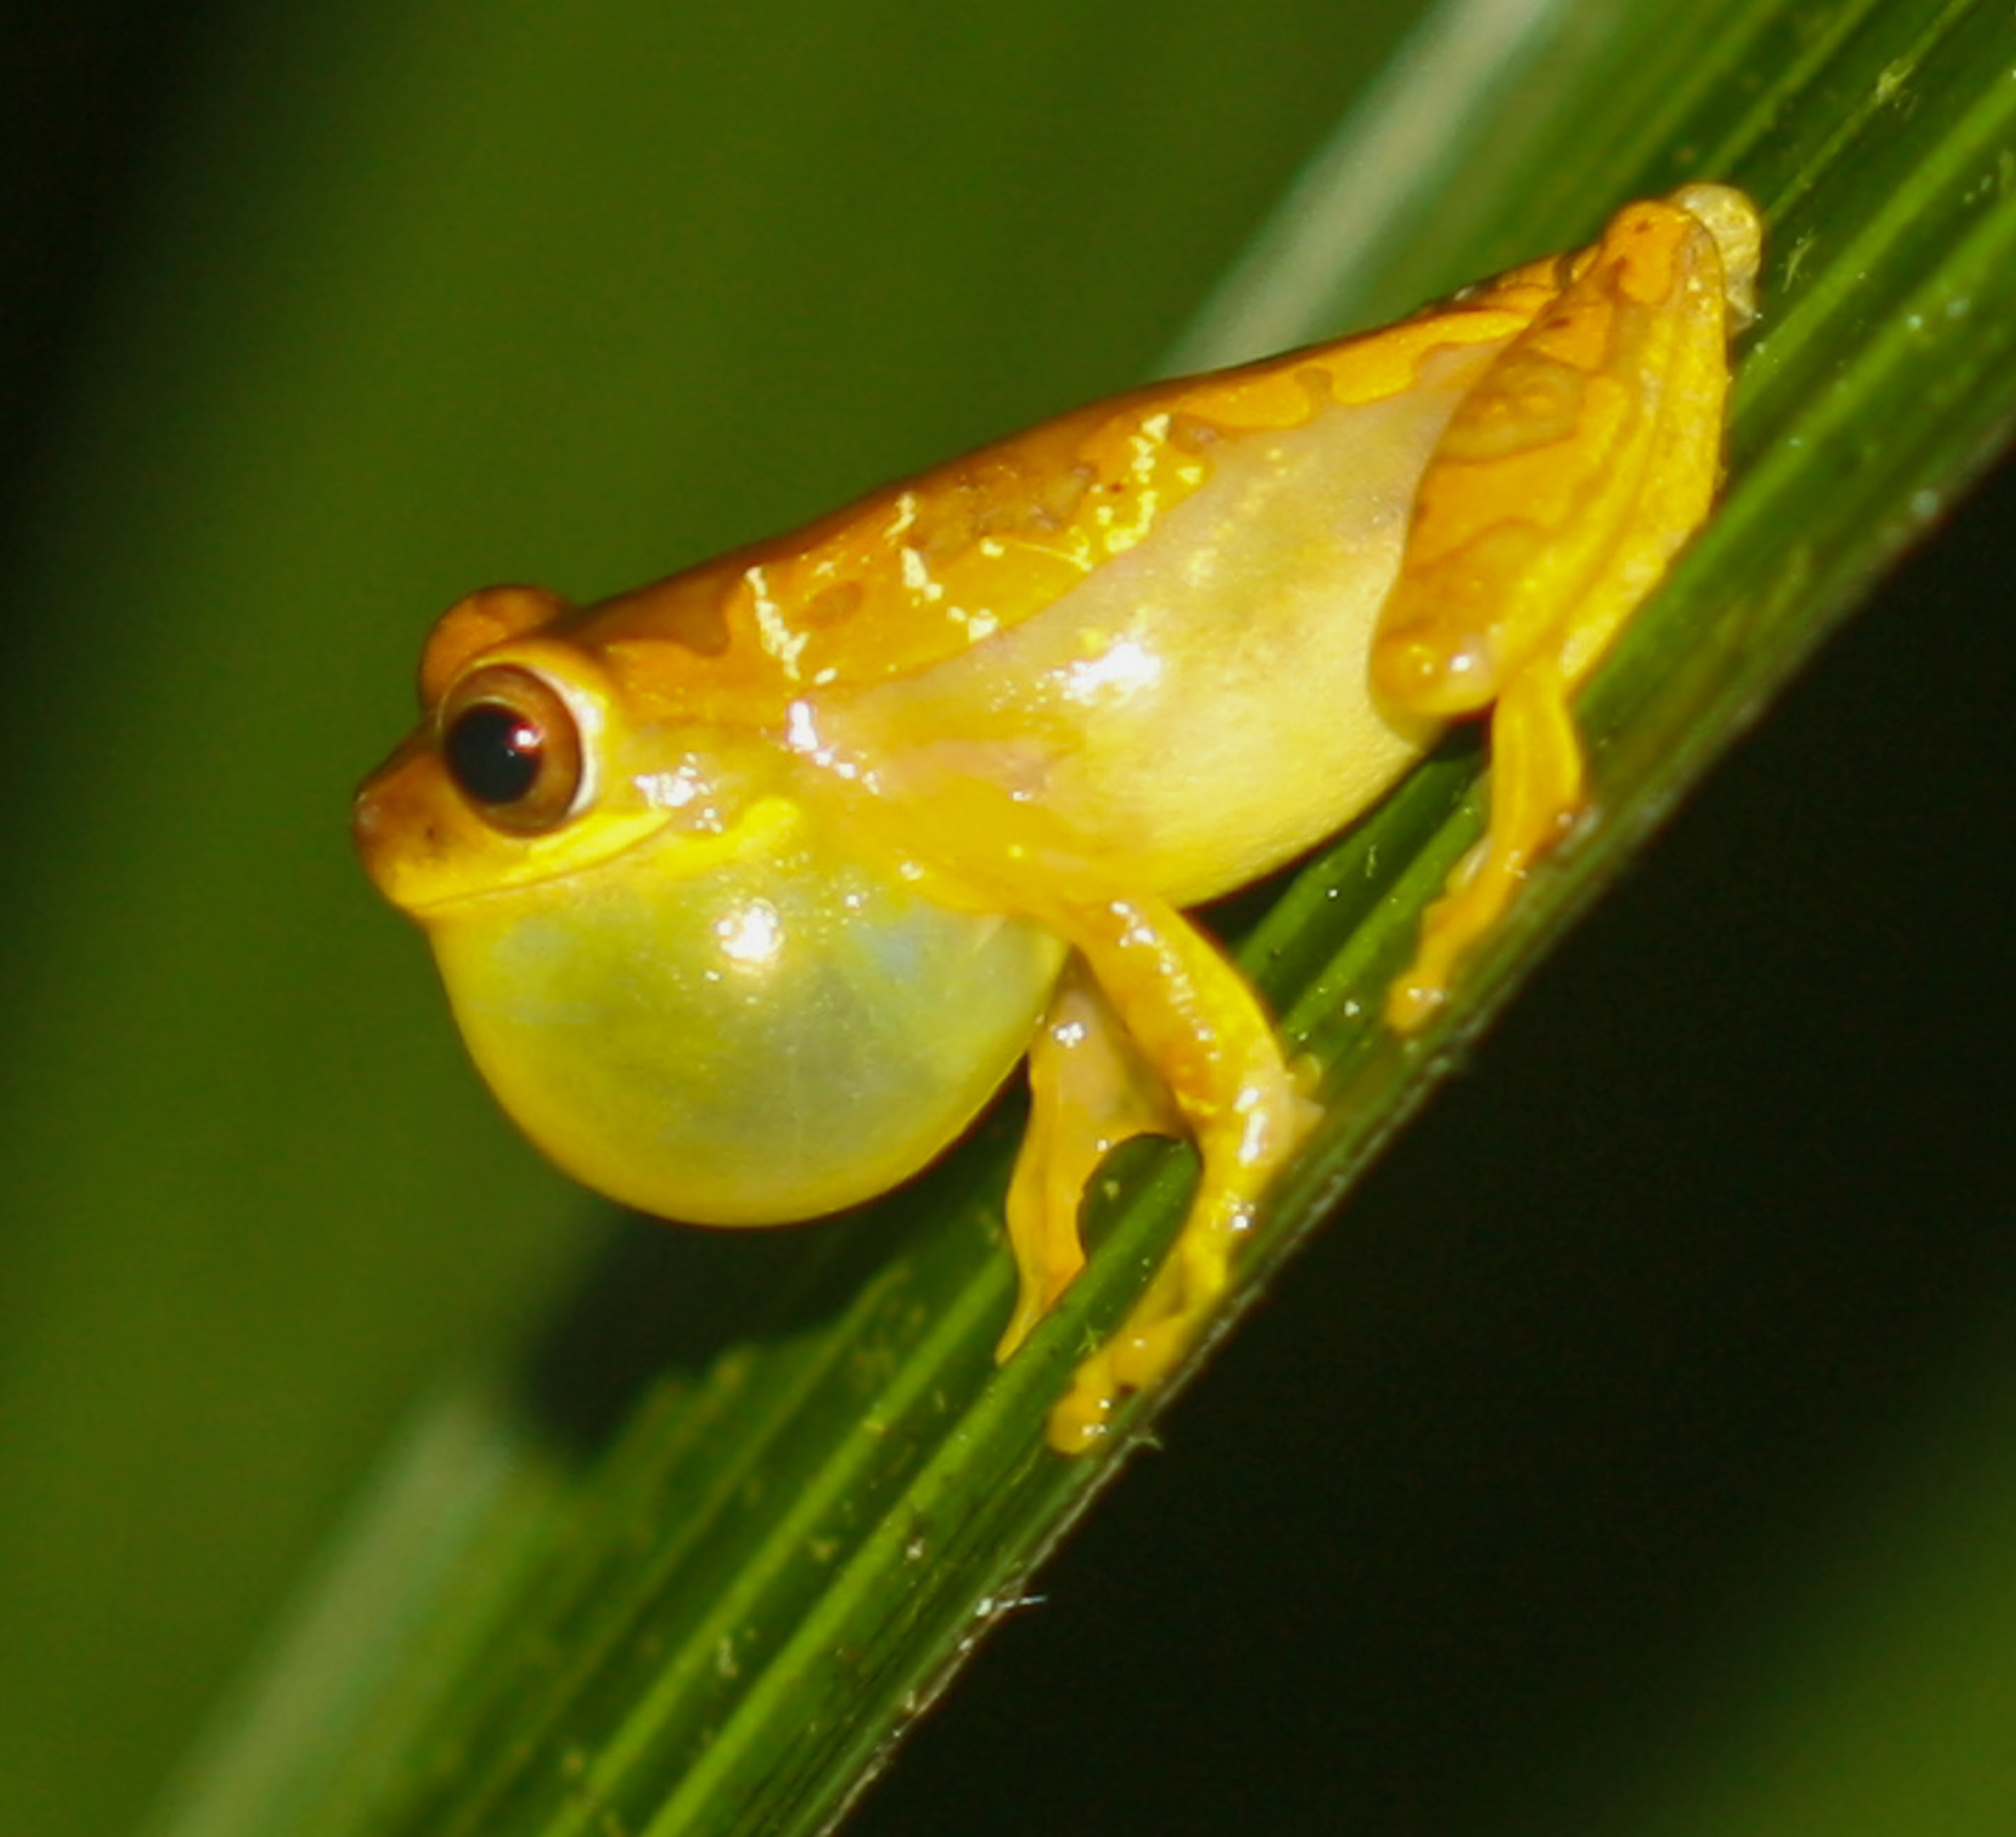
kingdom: Animalia
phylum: Chordata
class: Amphibia
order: Anura
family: Hylidae
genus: Dendropsophus
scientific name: Dendropsophus ebraccatus
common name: Hourglass treefrog
